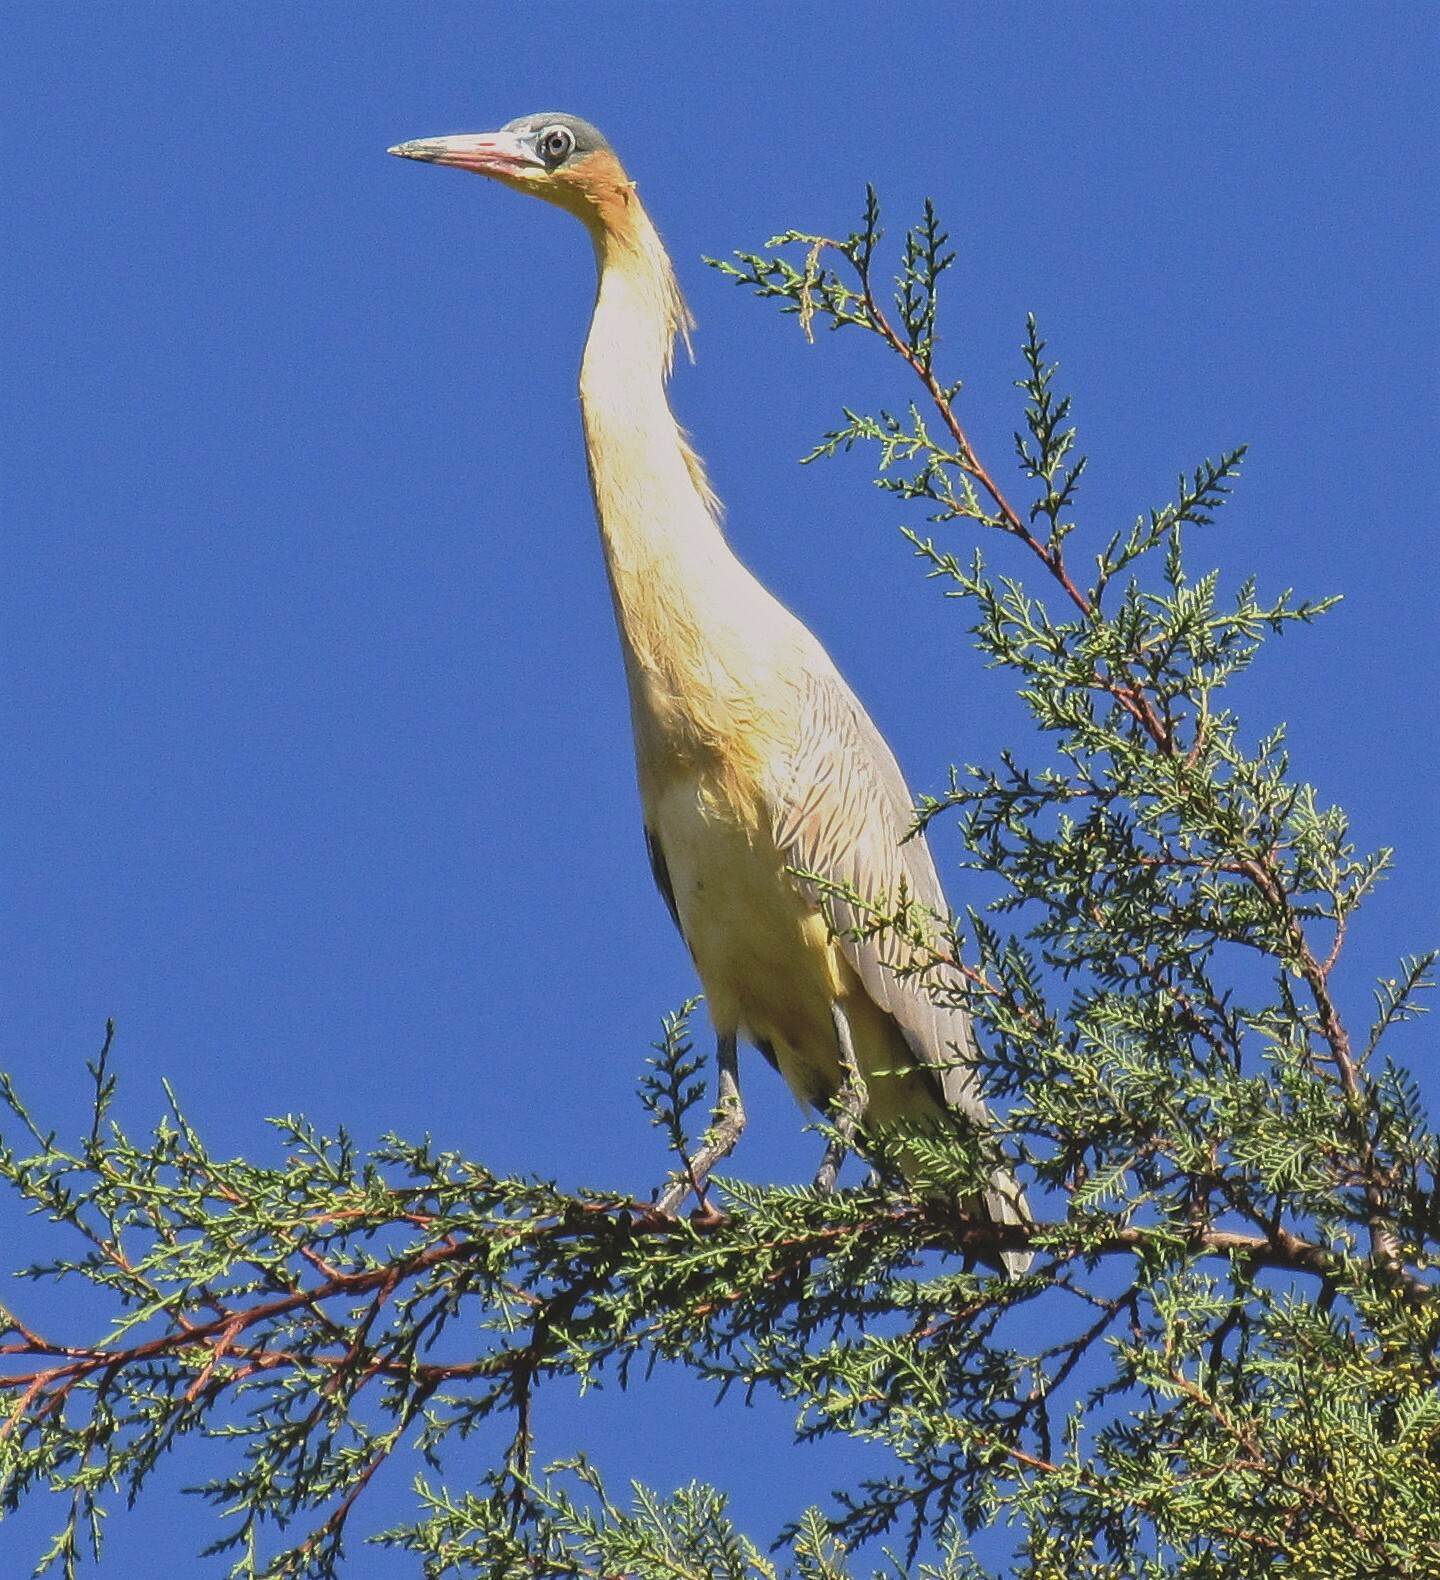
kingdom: Animalia
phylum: Chordata
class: Aves
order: Pelecaniformes
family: Ardeidae
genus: Syrigma
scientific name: Syrigma sibilatrix
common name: Whistling heron
